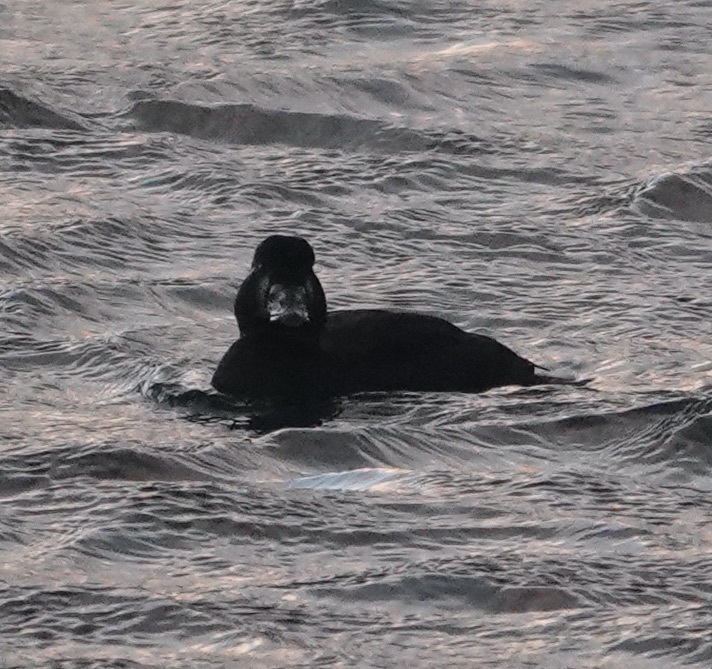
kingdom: Animalia
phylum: Chordata
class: Aves
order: Anseriformes
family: Anatidae
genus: Melanitta
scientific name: Melanitta perspicillata
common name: Surf scoter
